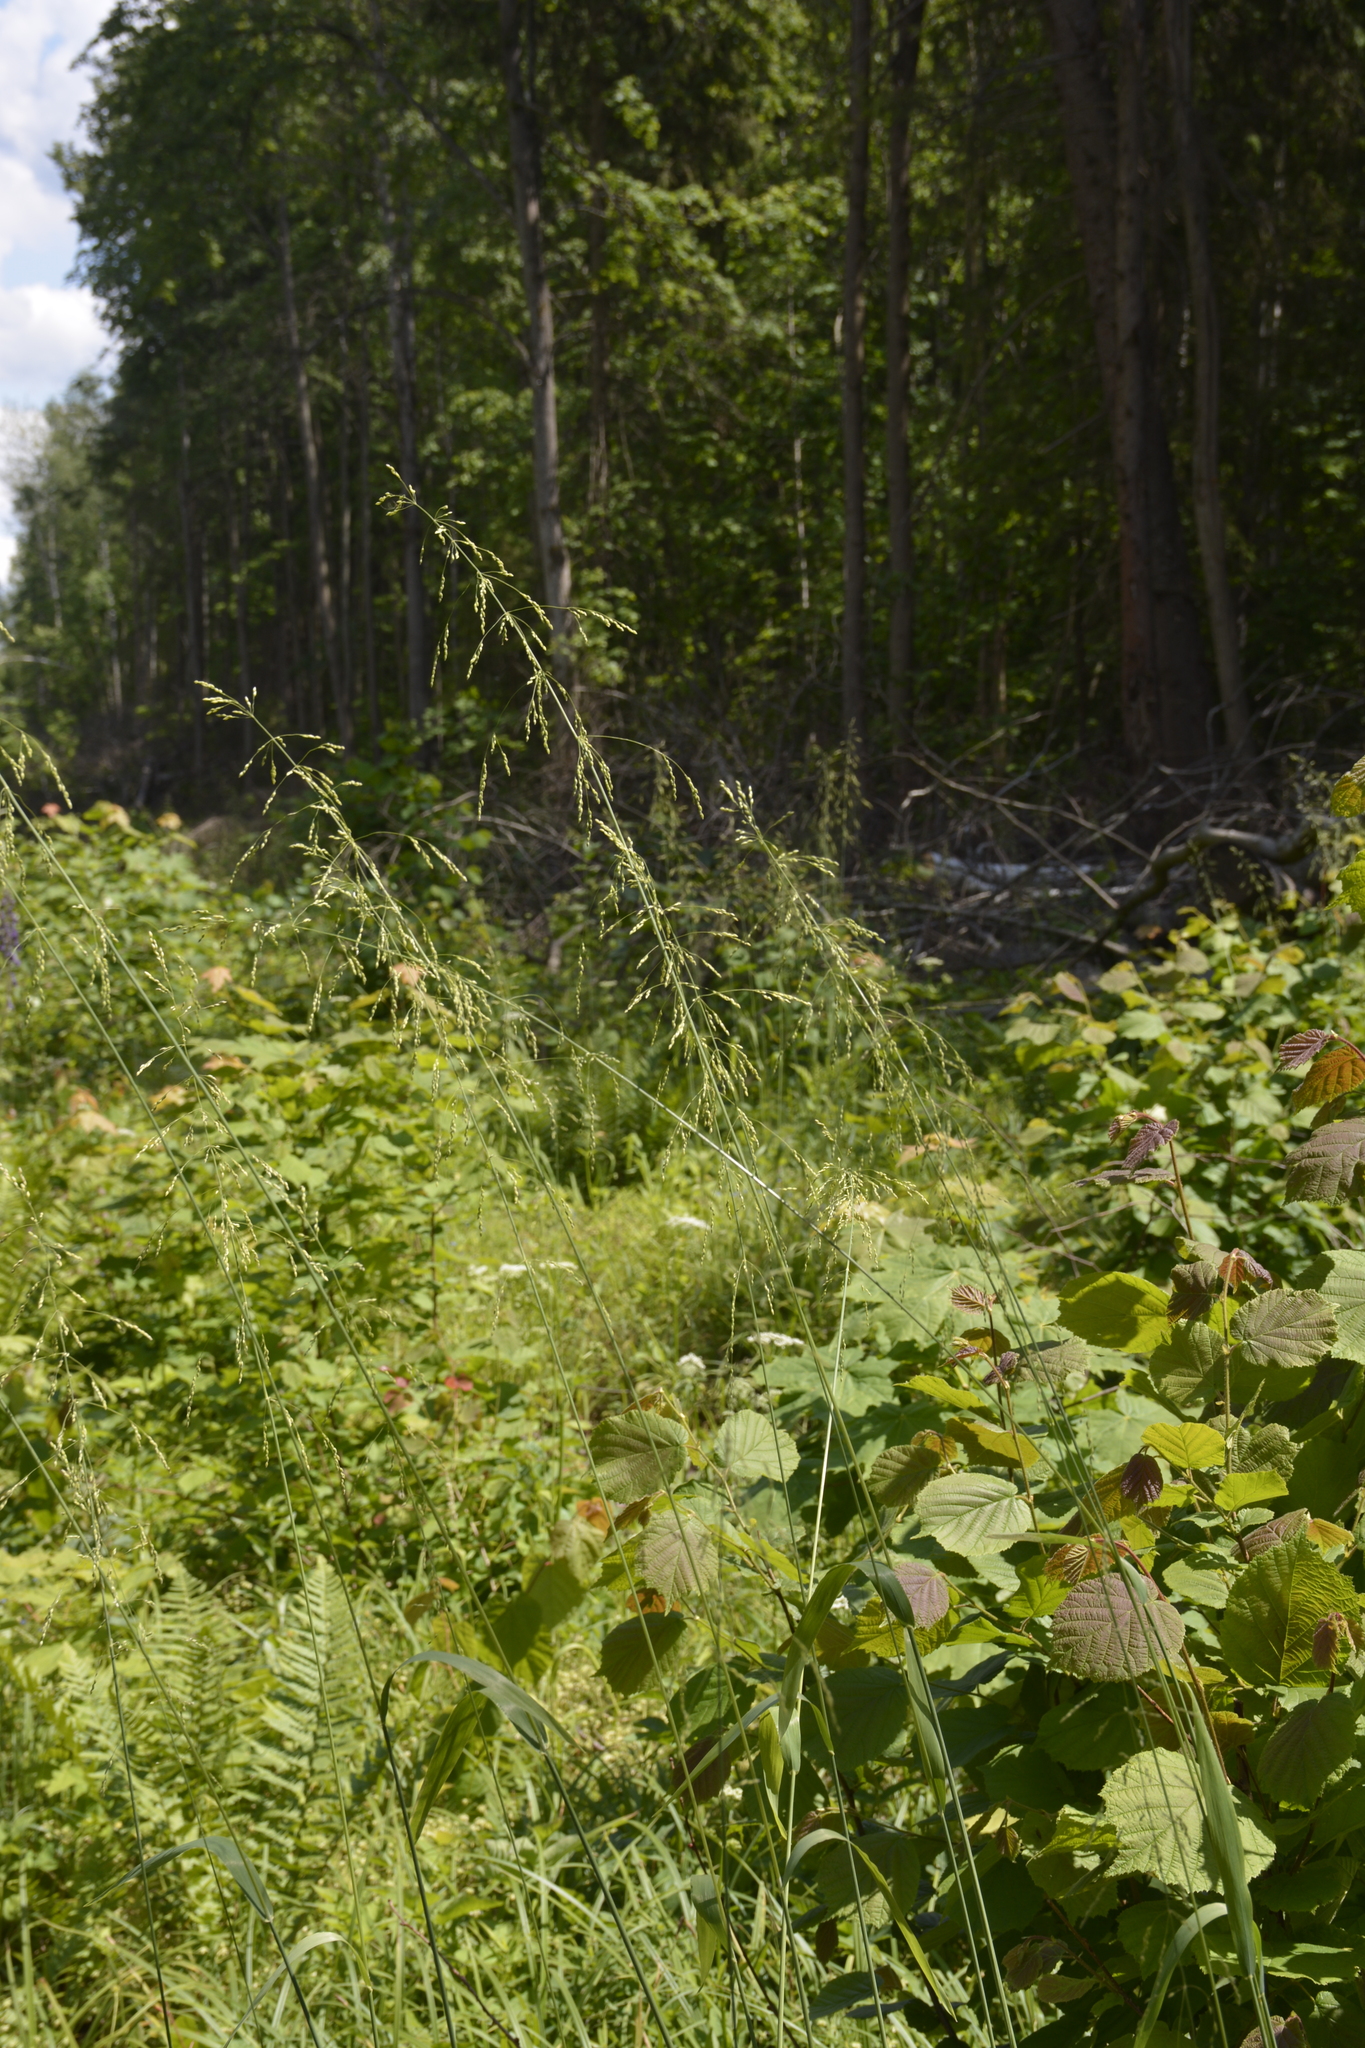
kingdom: Plantae
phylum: Tracheophyta
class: Liliopsida
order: Poales
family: Poaceae
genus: Milium
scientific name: Milium effusum
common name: Wood millet
